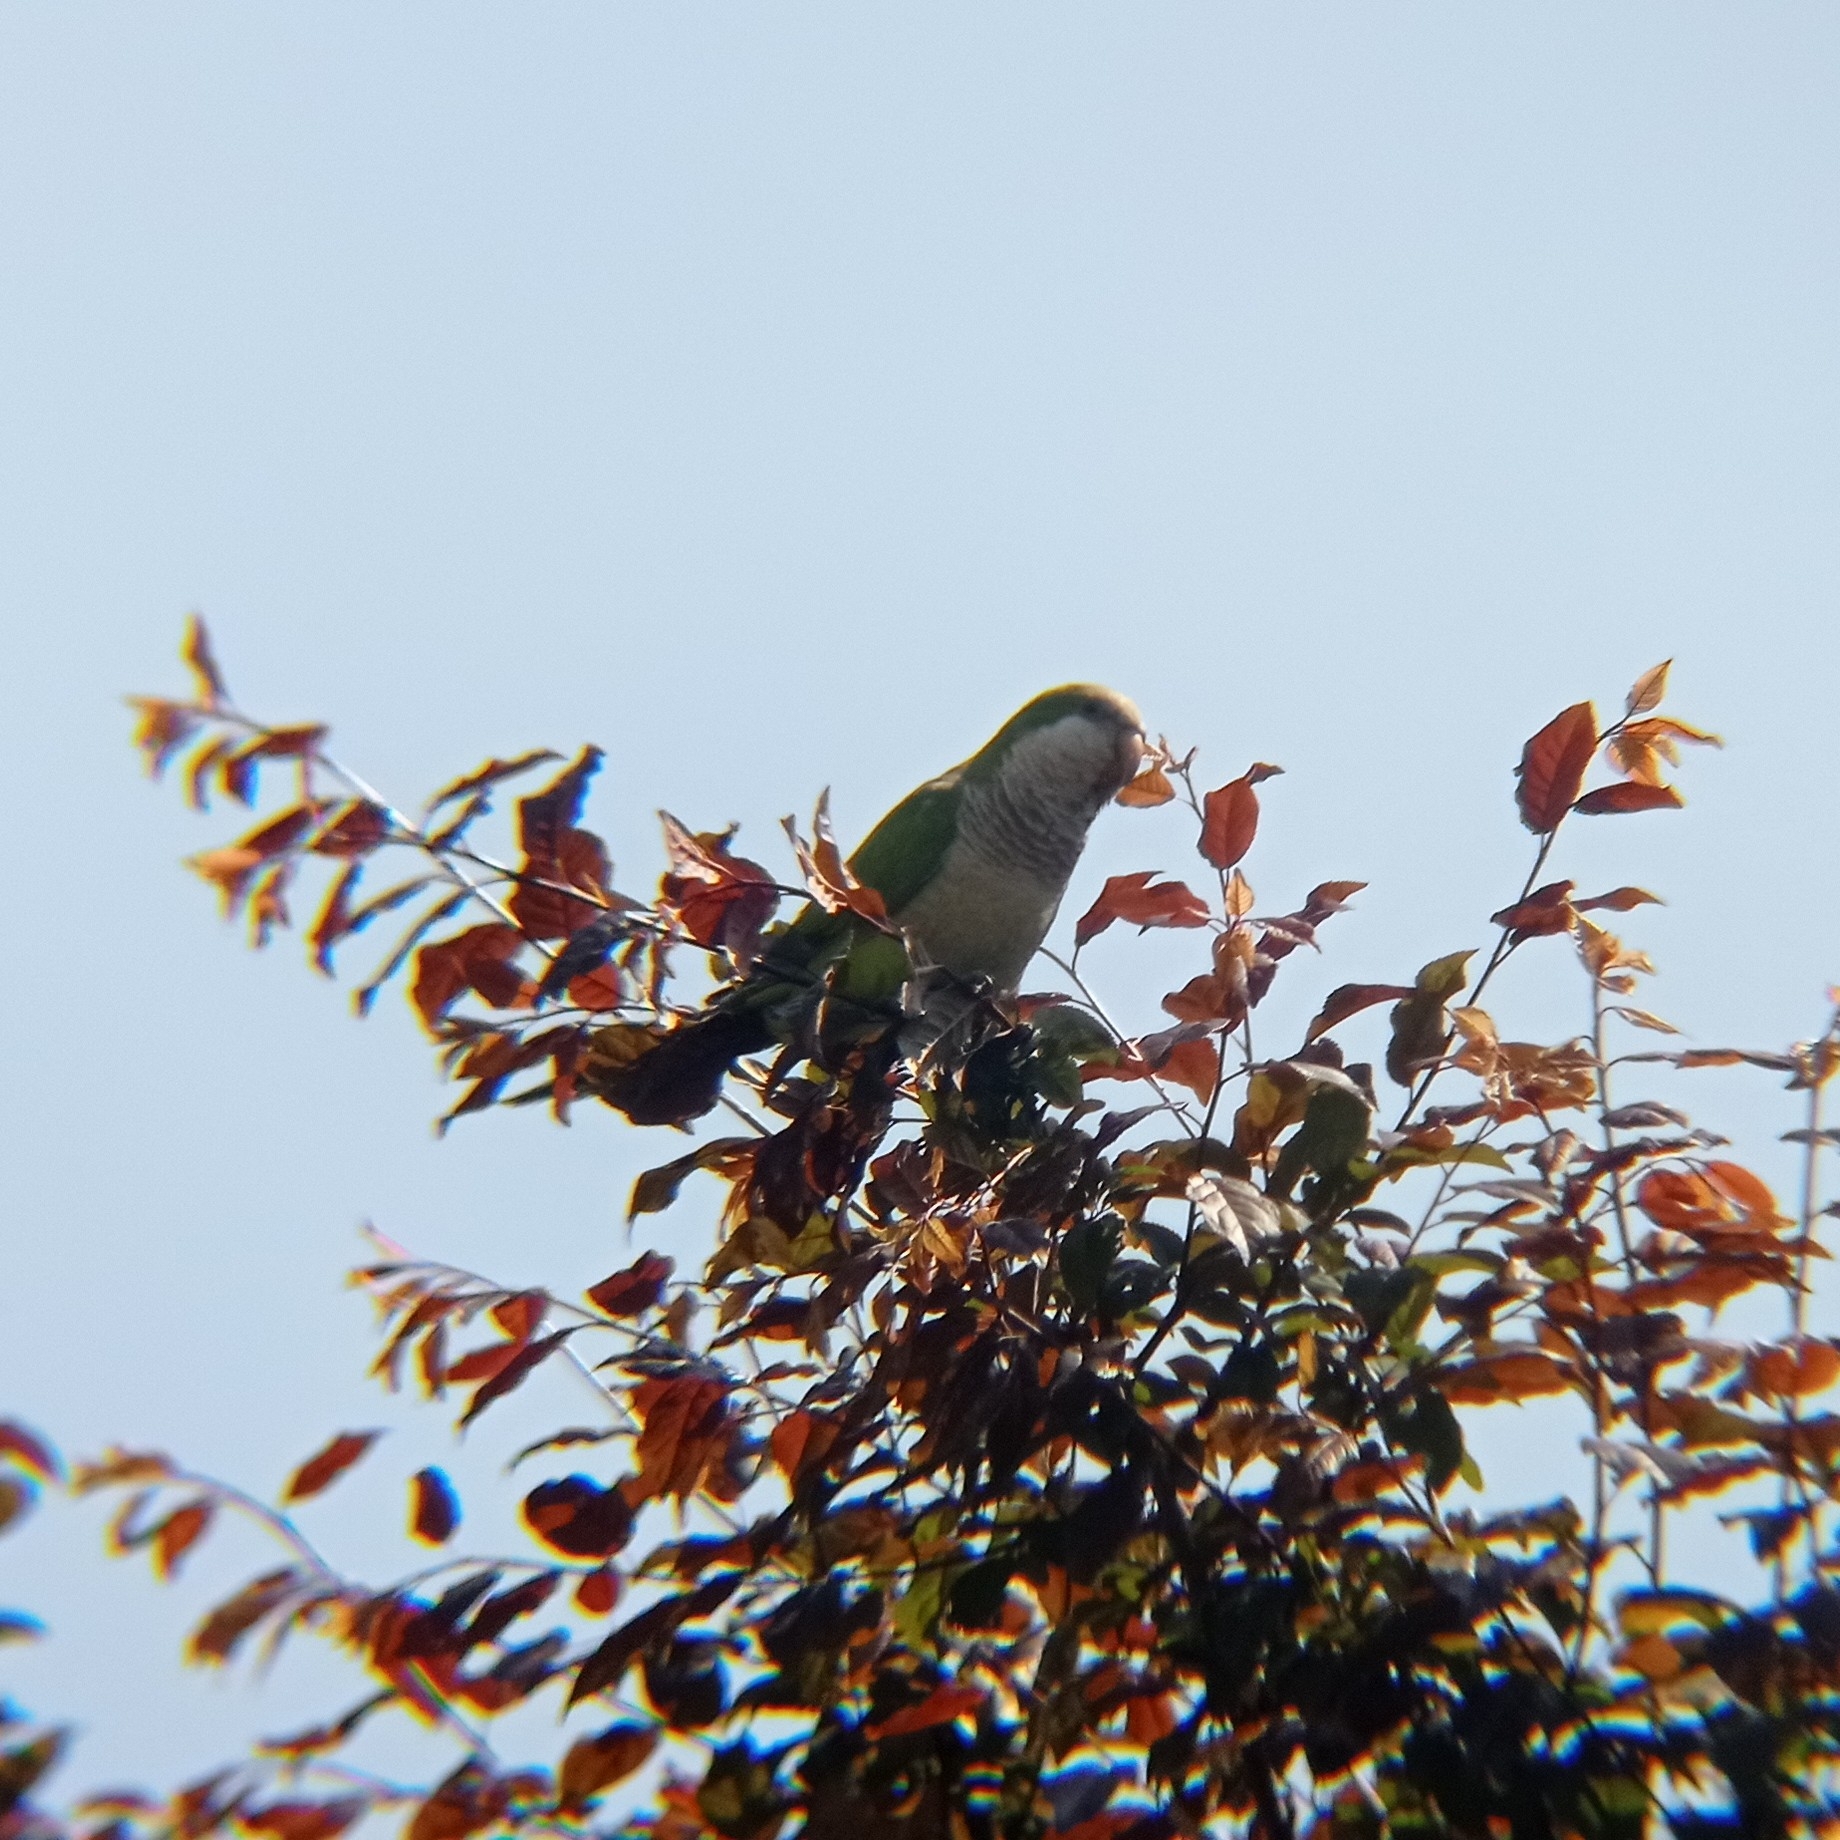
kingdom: Animalia
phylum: Chordata
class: Aves
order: Psittaciformes
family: Psittacidae
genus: Myiopsitta
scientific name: Myiopsitta monachus
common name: Monk parakeet
